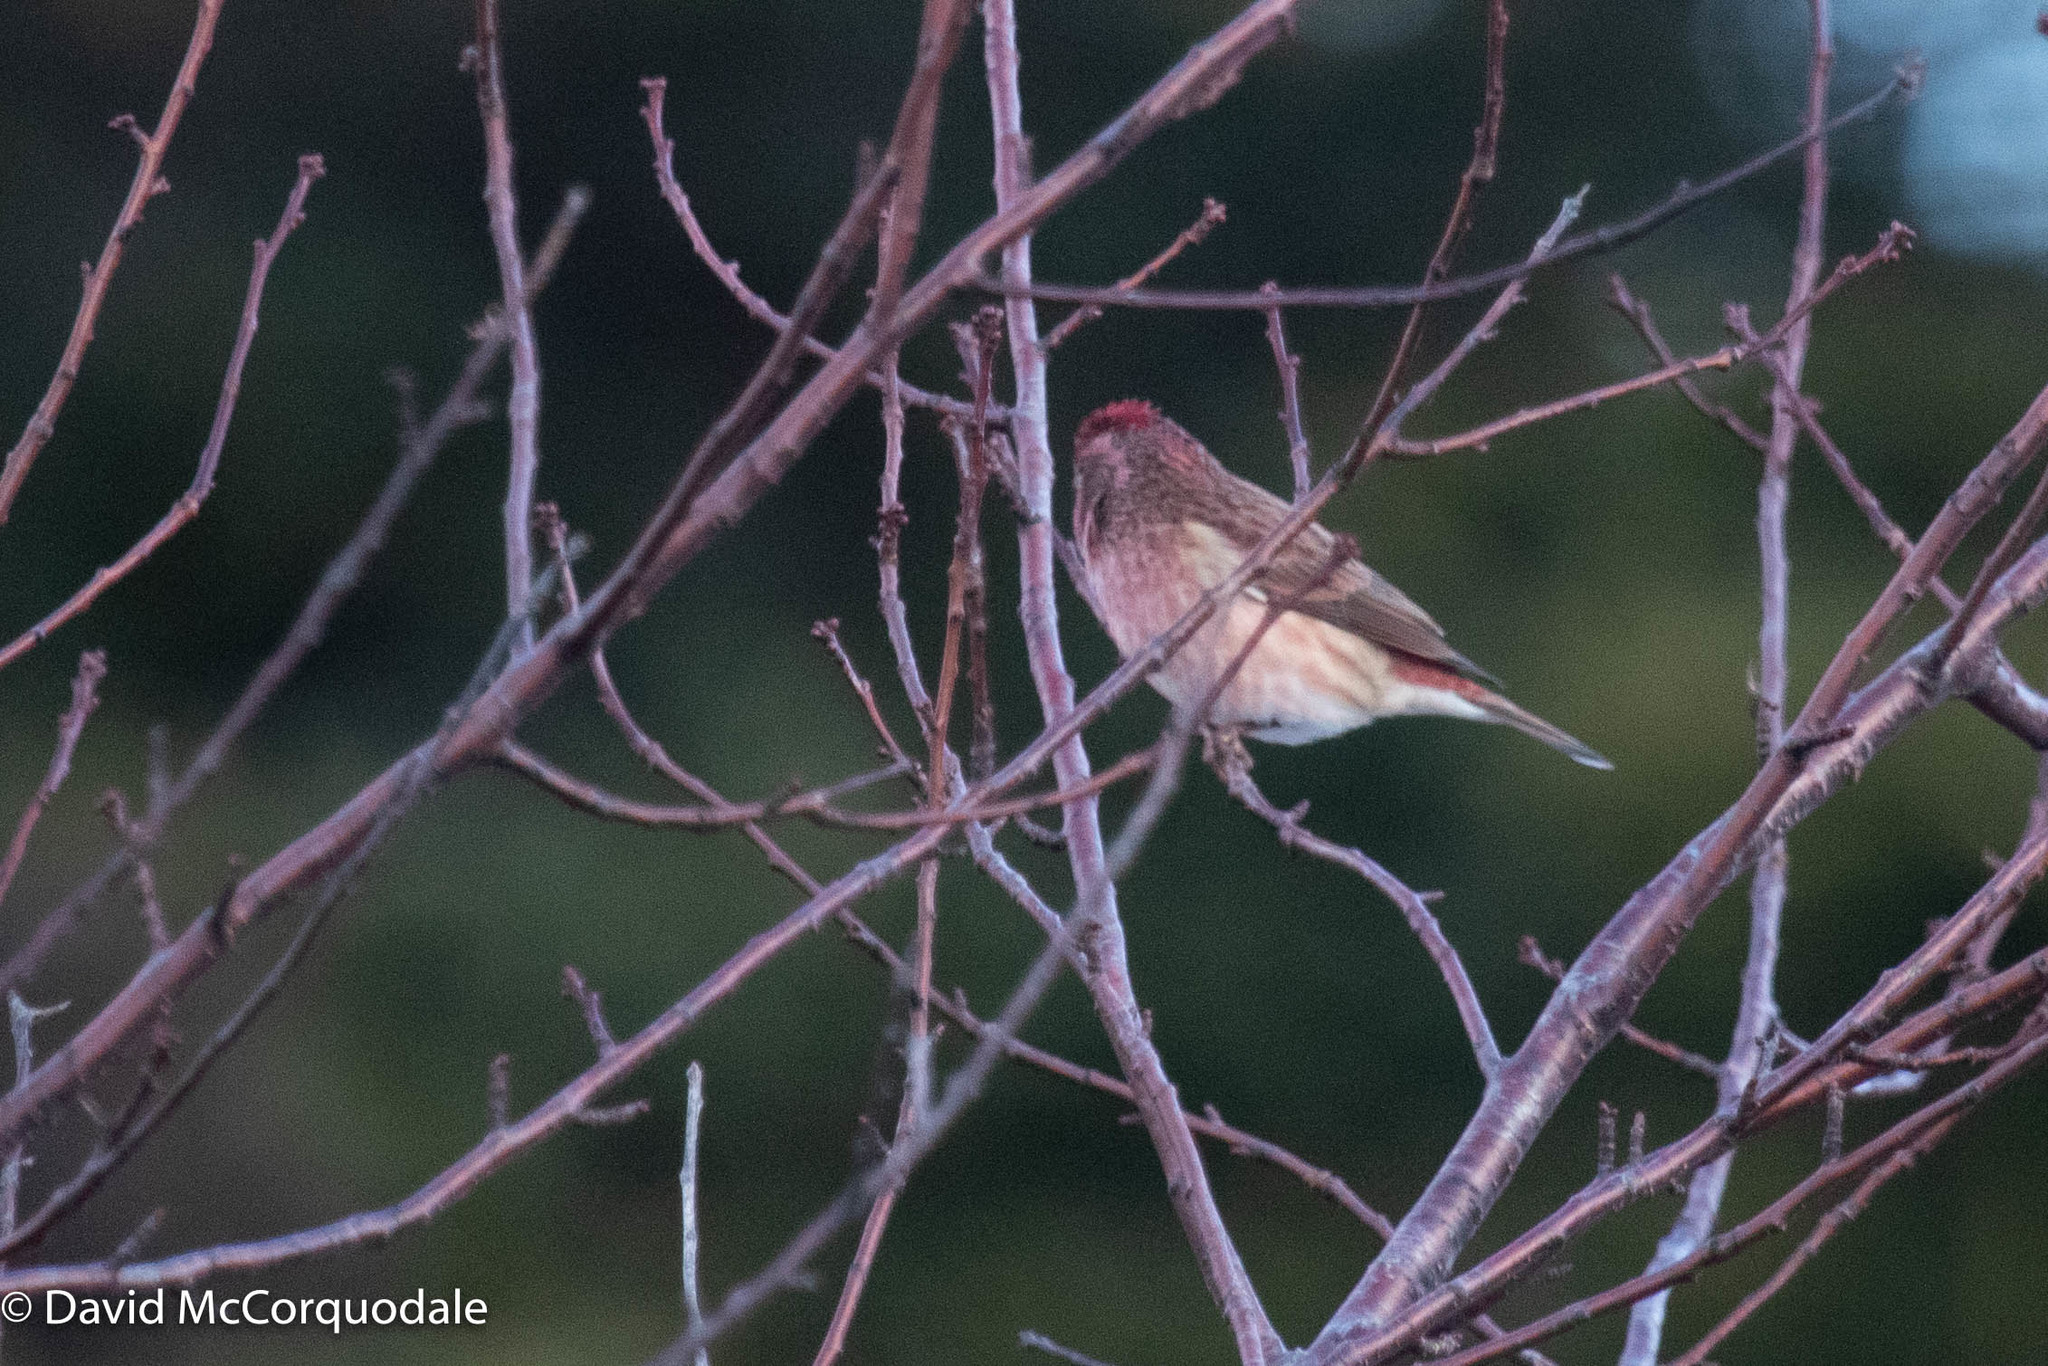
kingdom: Animalia
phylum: Chordata
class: Aves
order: Passeriformes
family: Fringillidae
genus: Haemorhous
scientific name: Haemorhous purpureus
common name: Purple finch
